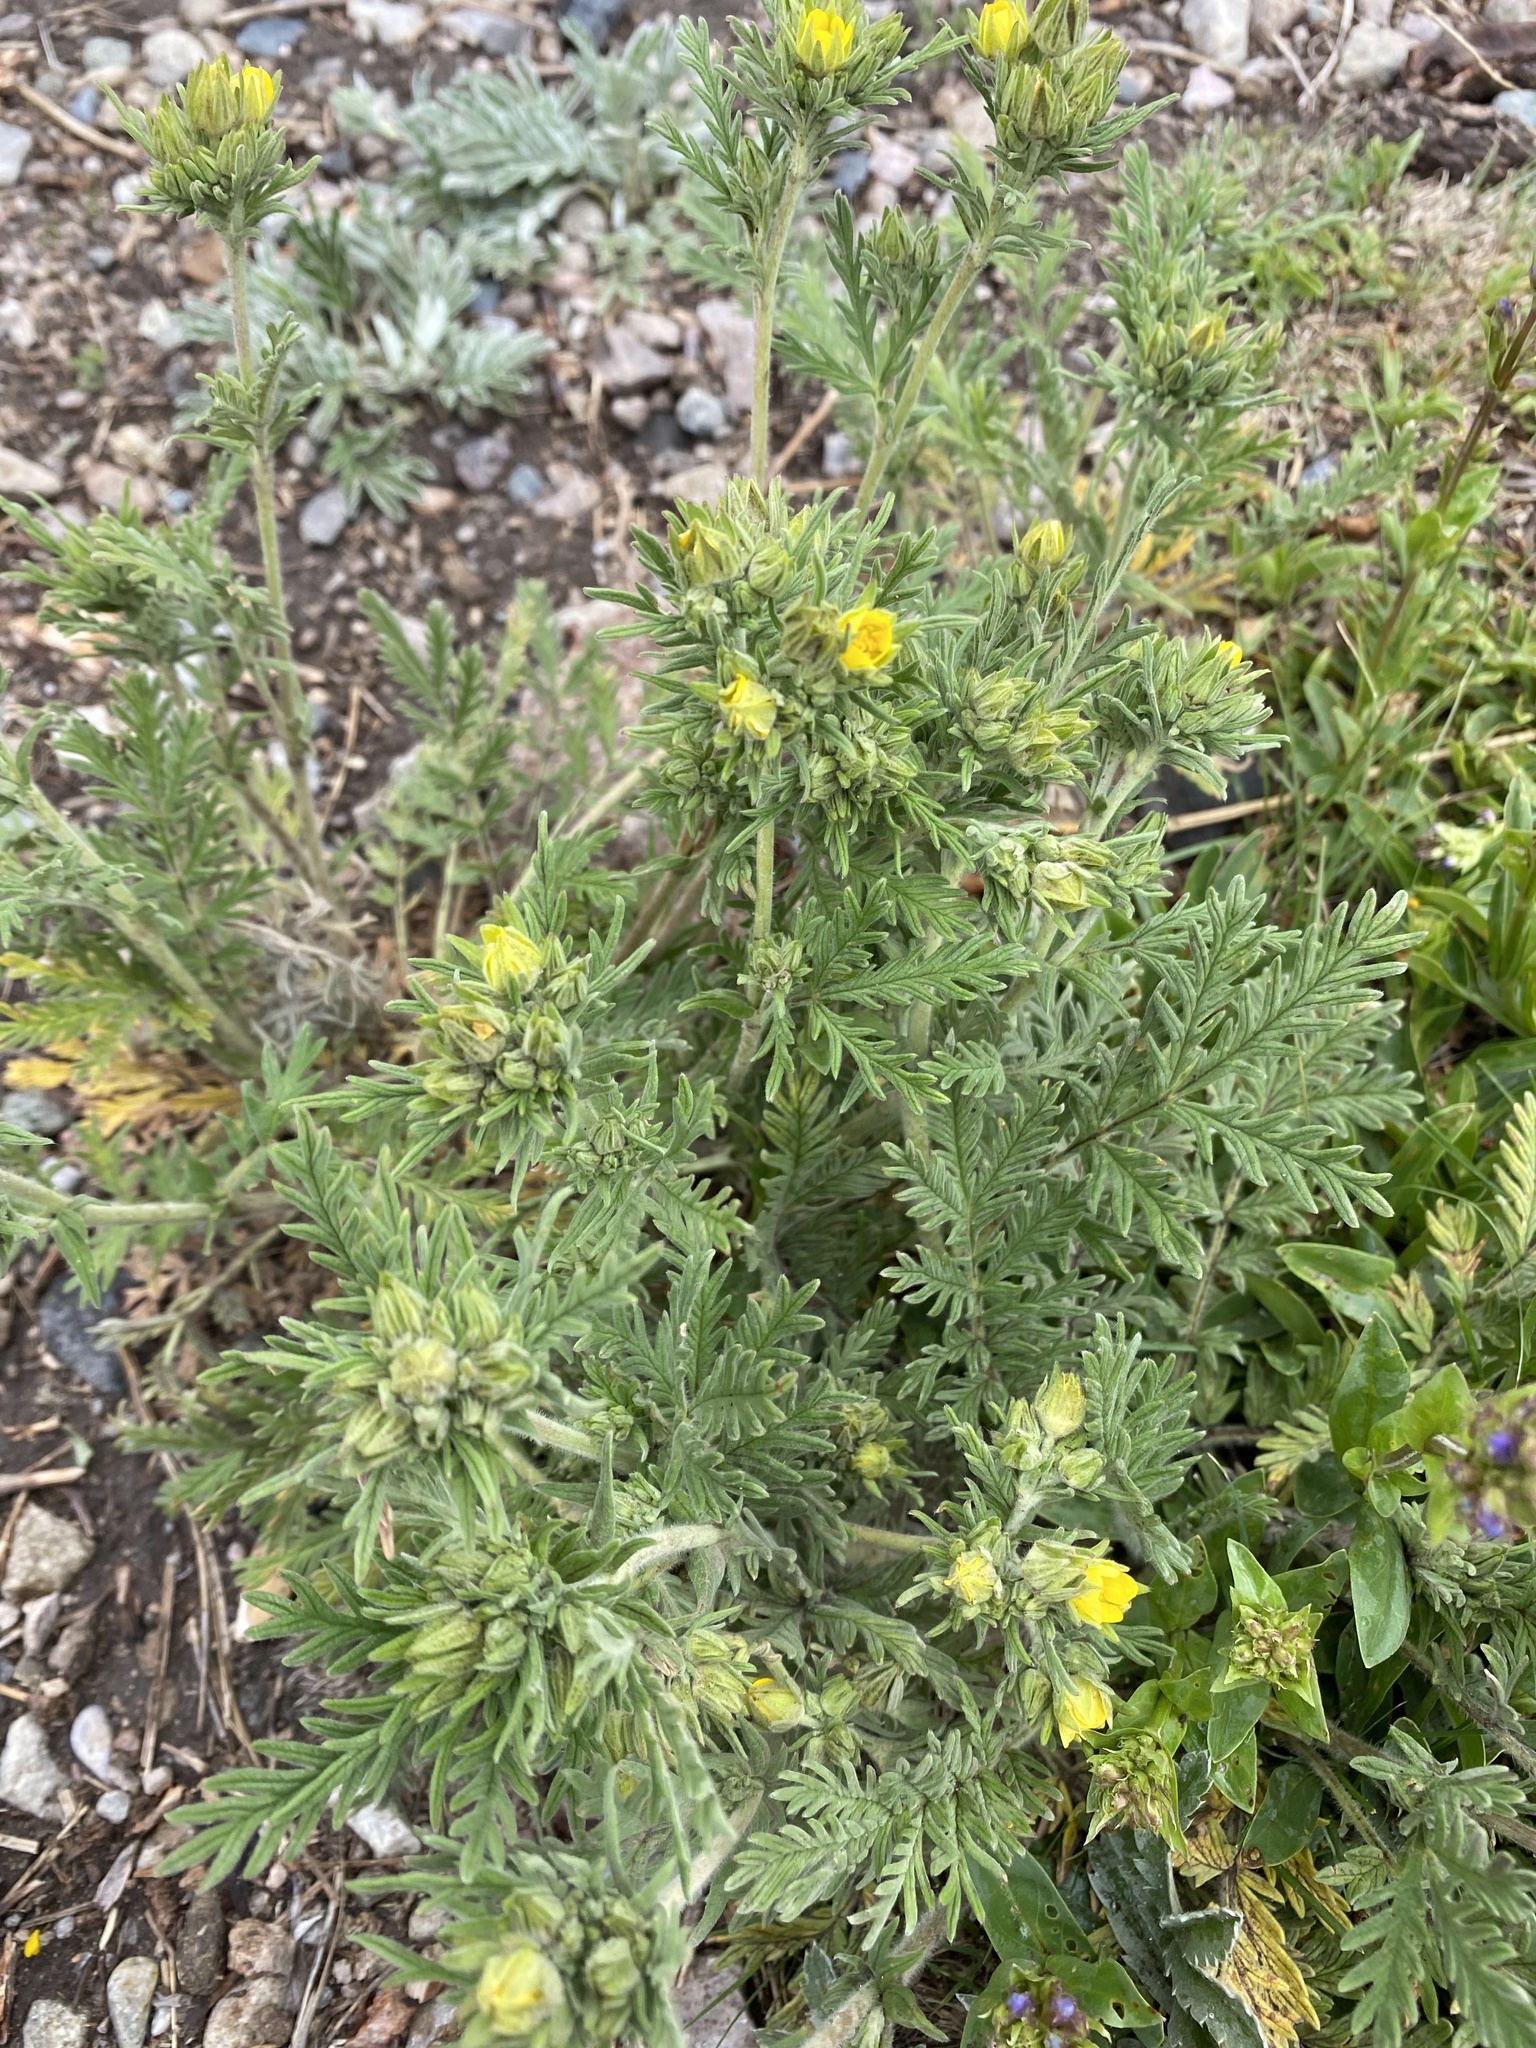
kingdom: Plantae
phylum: Tracheophyta
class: Magnoliopsida
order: Rosales
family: Rosaceae
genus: Potentilla
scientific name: Potentilla pensylvanica
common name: Pennsylvania cinquefoil
